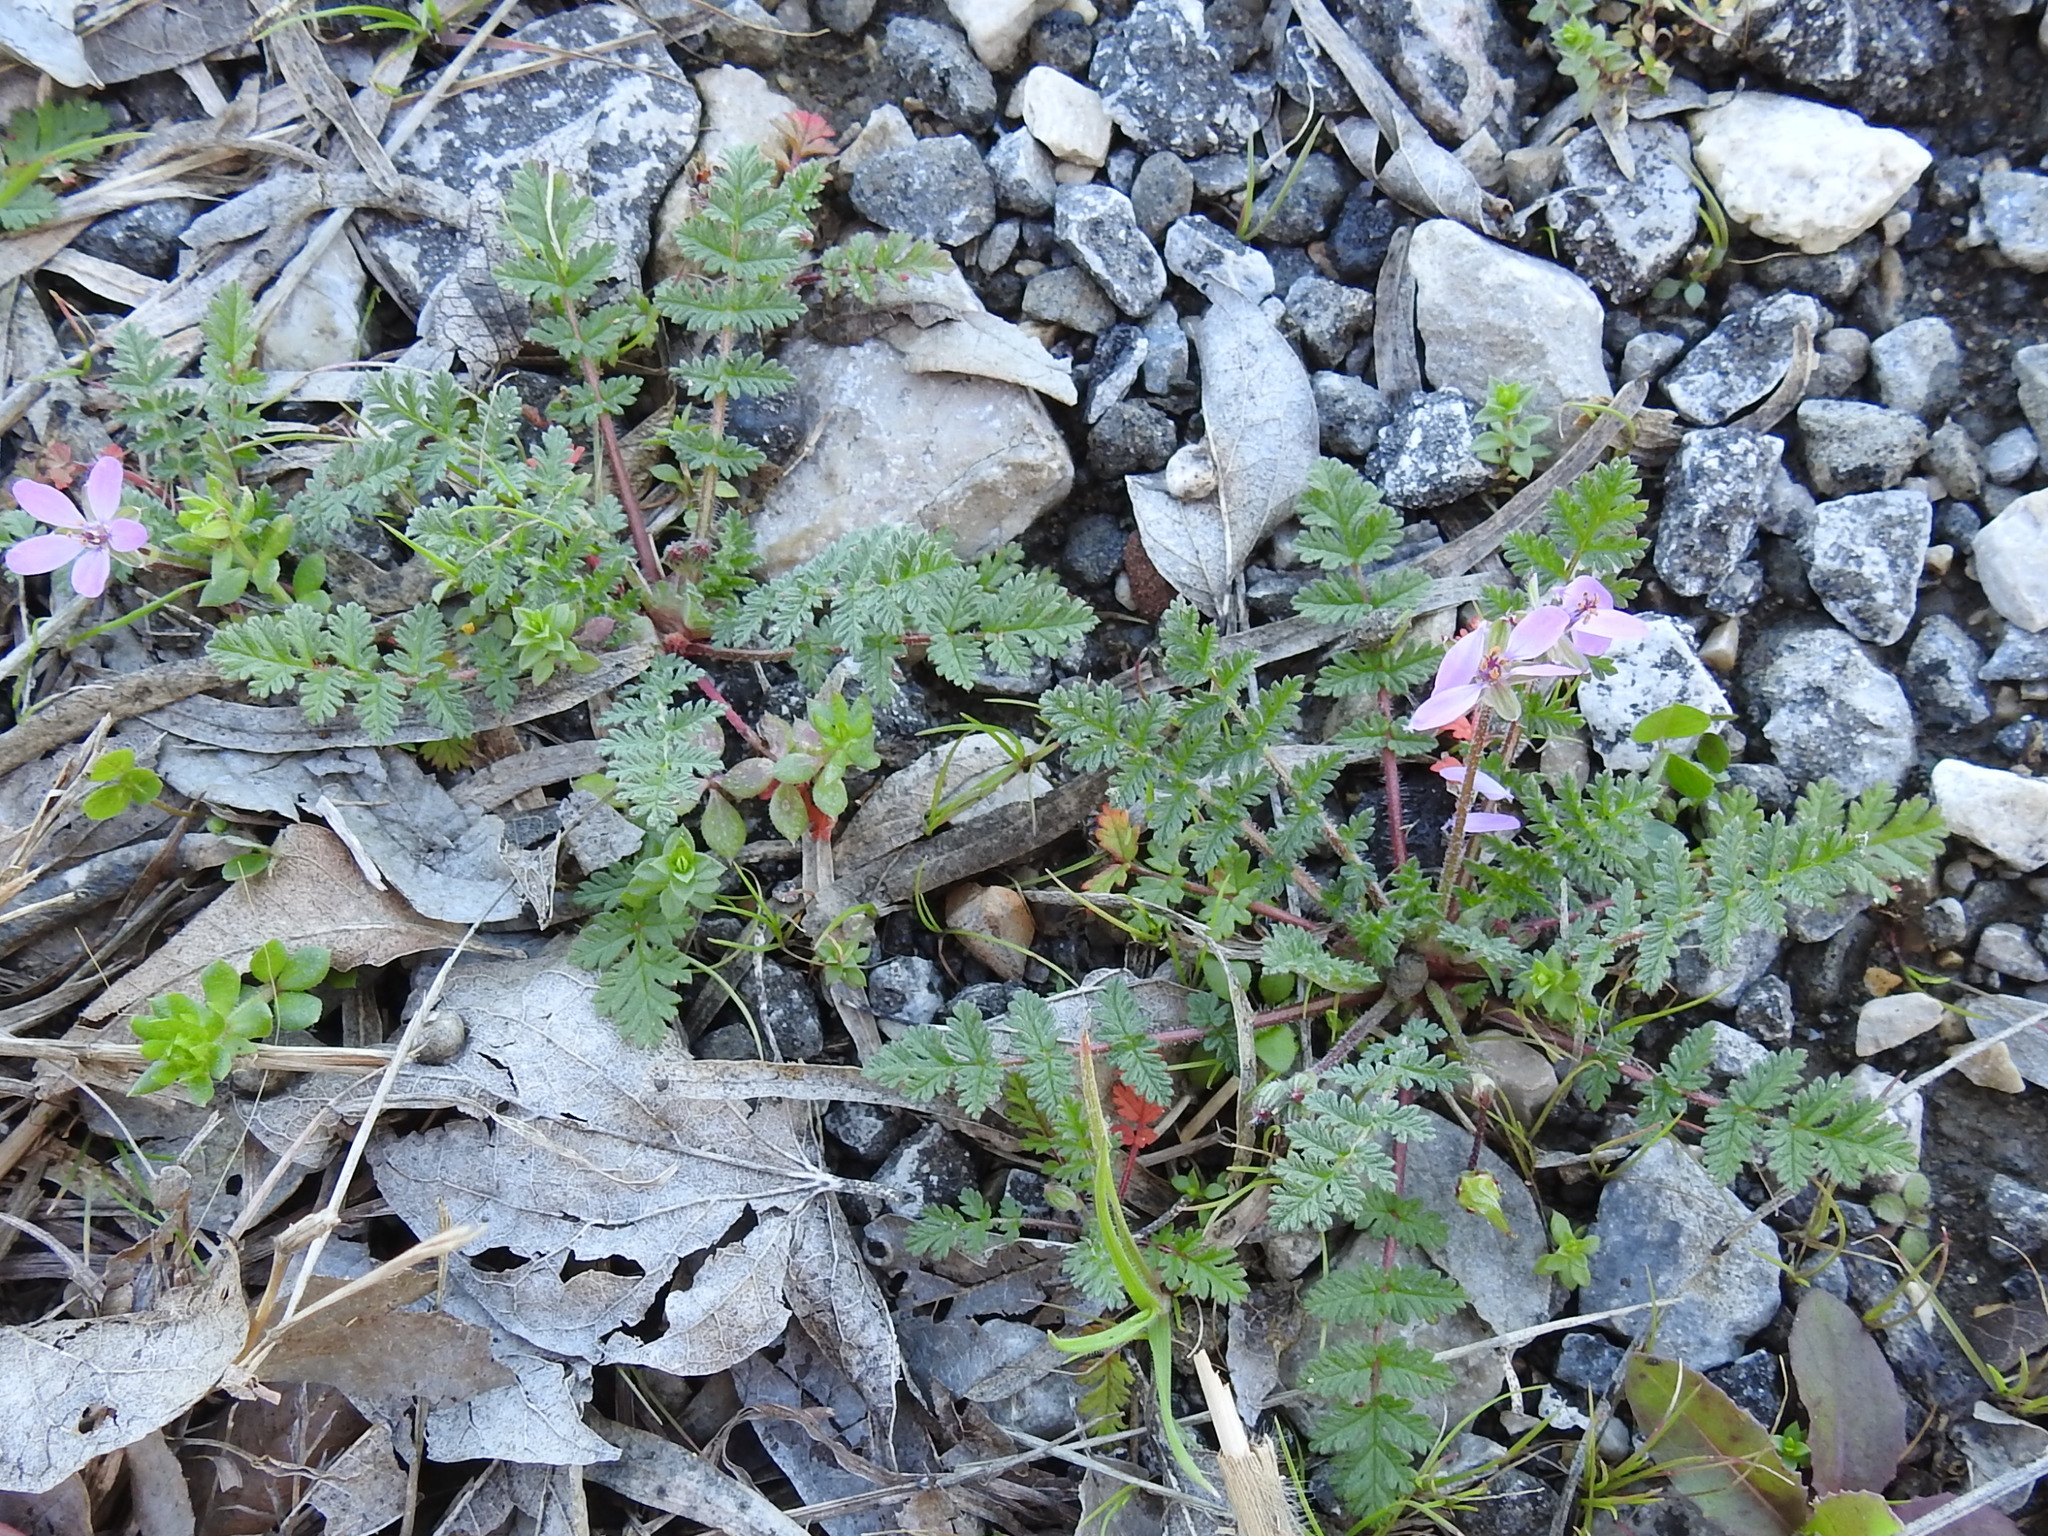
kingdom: Plantae
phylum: Tracheophyta
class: Magnoliopsida
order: Geraniales
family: Geraniaceae
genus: Erodium
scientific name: Erodium cicutarium
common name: Common stork's-bill
